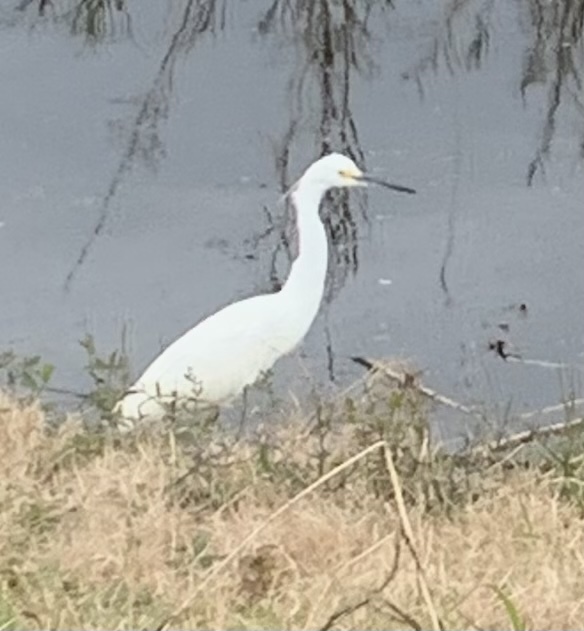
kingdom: Animalia
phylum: Chordata
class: Aves
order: Pelecaniformes
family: Ardeidae
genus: Egretta
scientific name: Egretta thula
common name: Snowy egret
